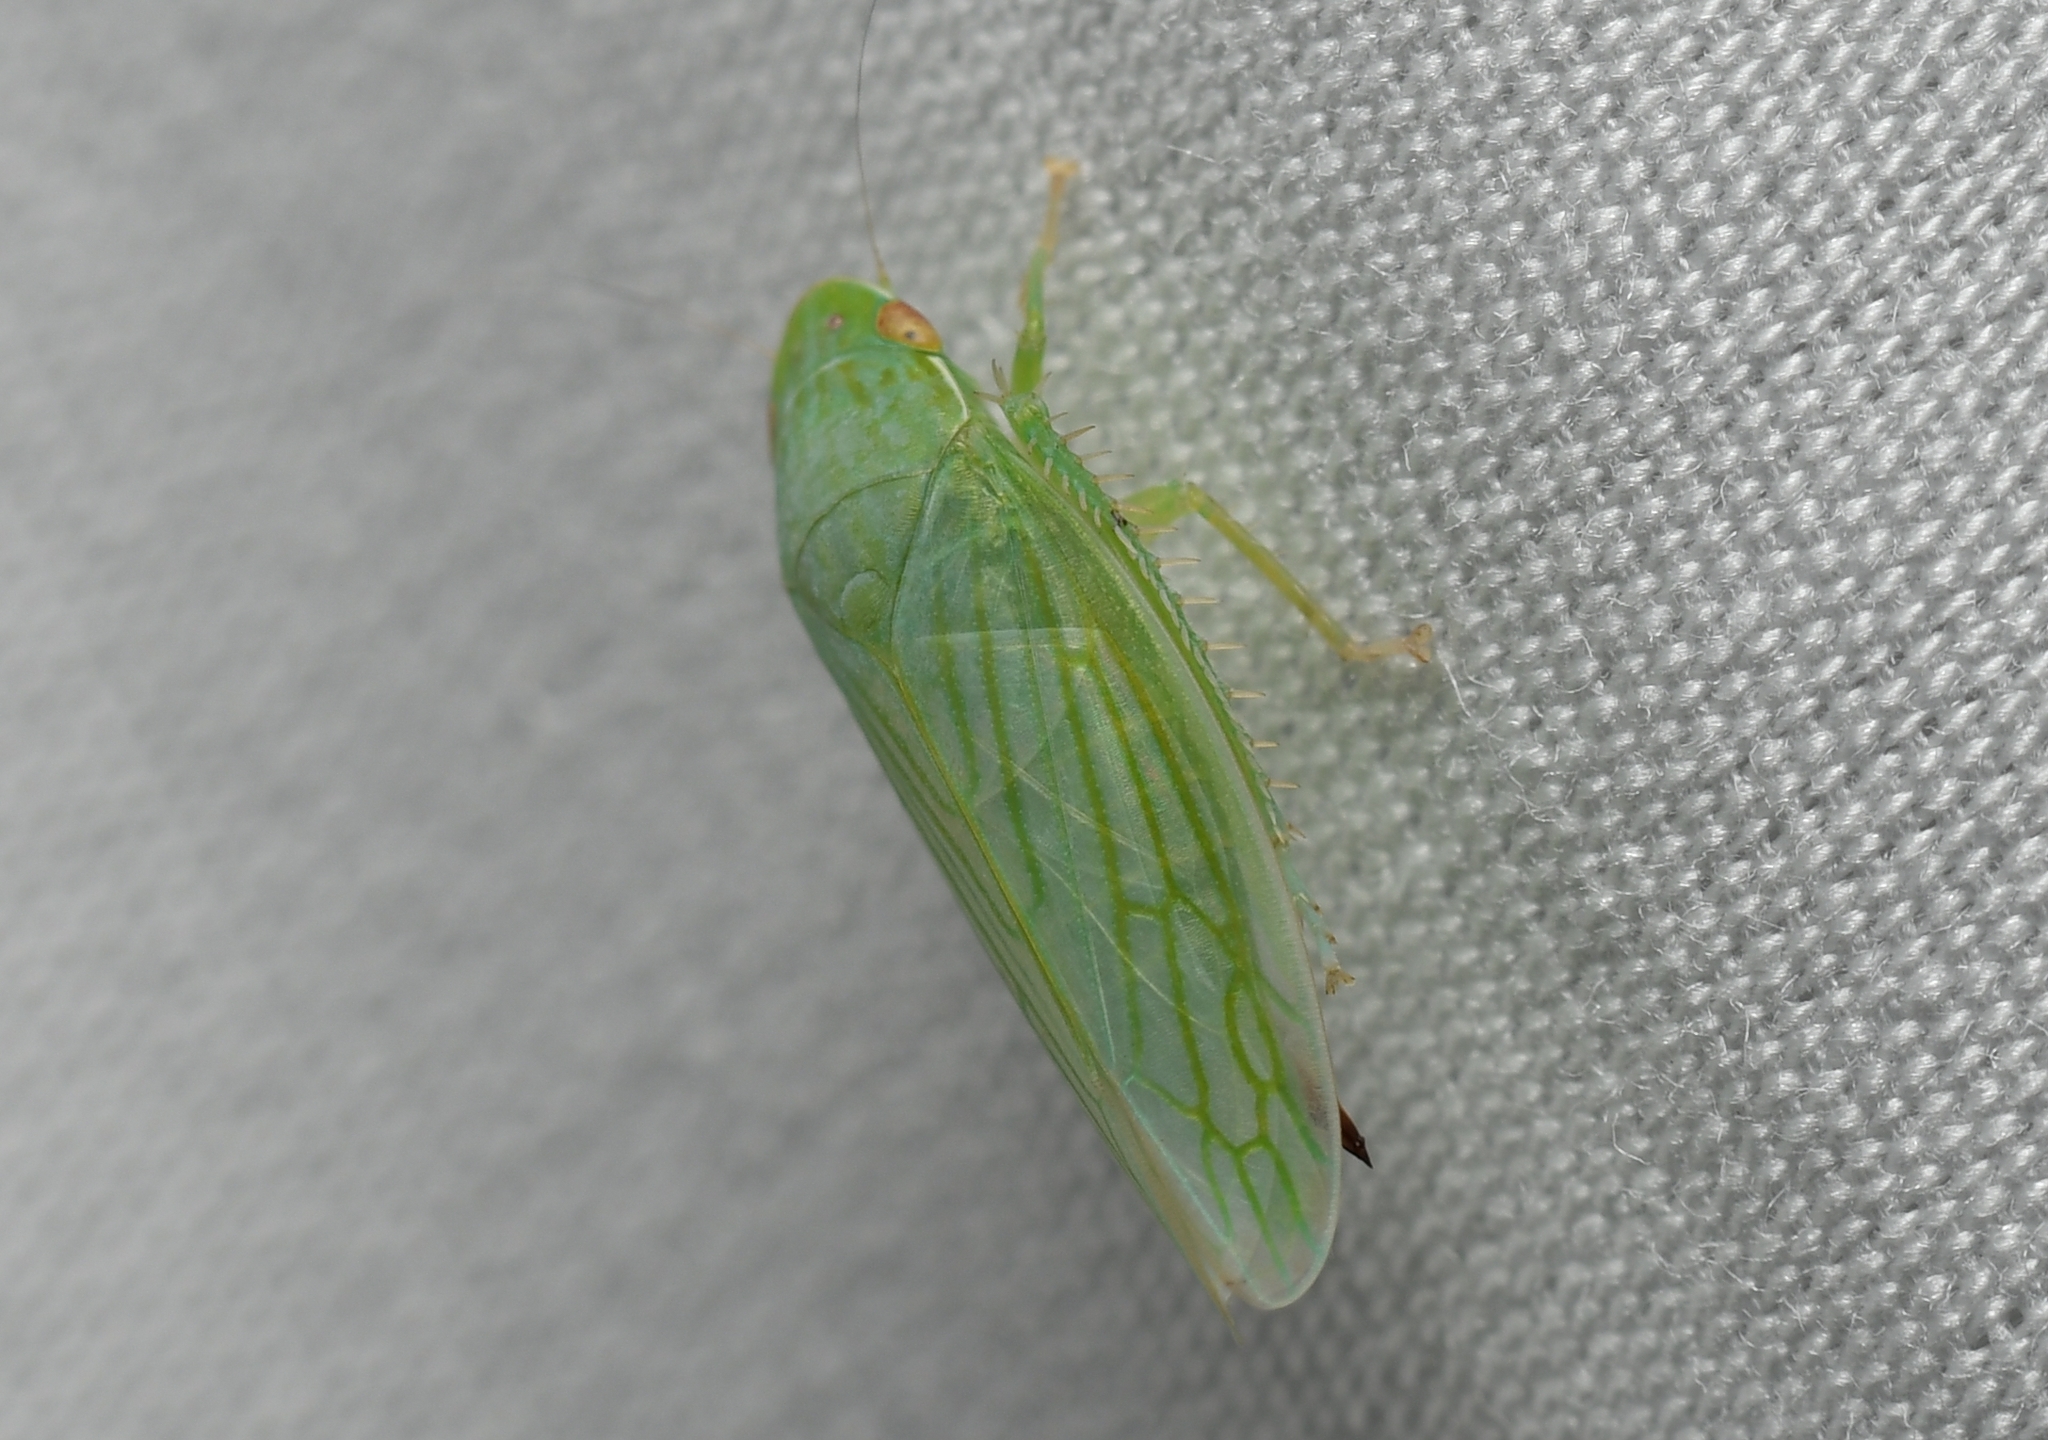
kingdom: Animalia
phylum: Arthropoda
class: Insecta
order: Hemiptera
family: Cicadellidae
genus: Gyponana
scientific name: Gyponana tenella
